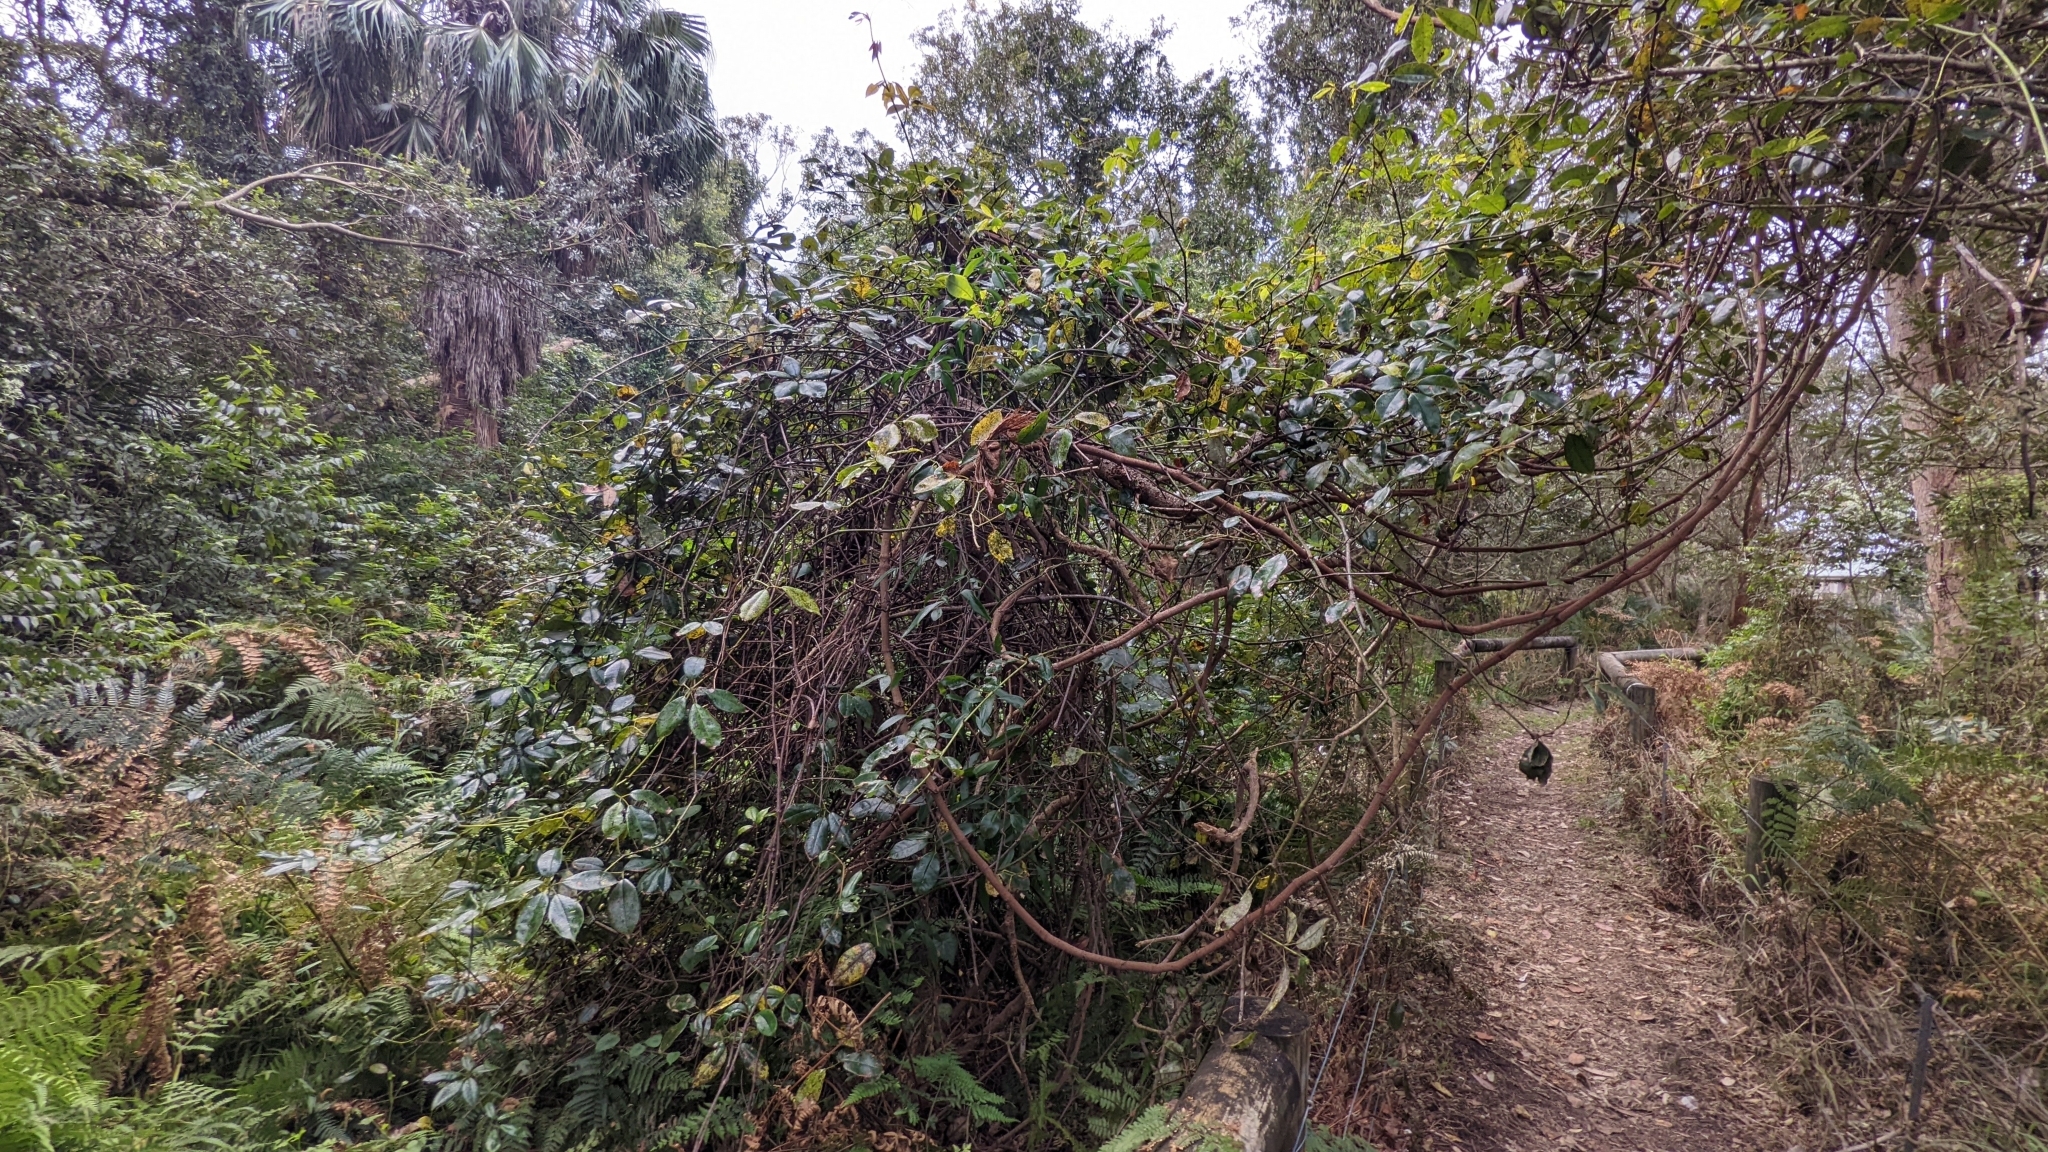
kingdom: Plantae
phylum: Tracheophyta
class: Magnoliopsida
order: Vitales
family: Vitaceae
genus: Nothocissus
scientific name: Nothocissus hypoglauca
